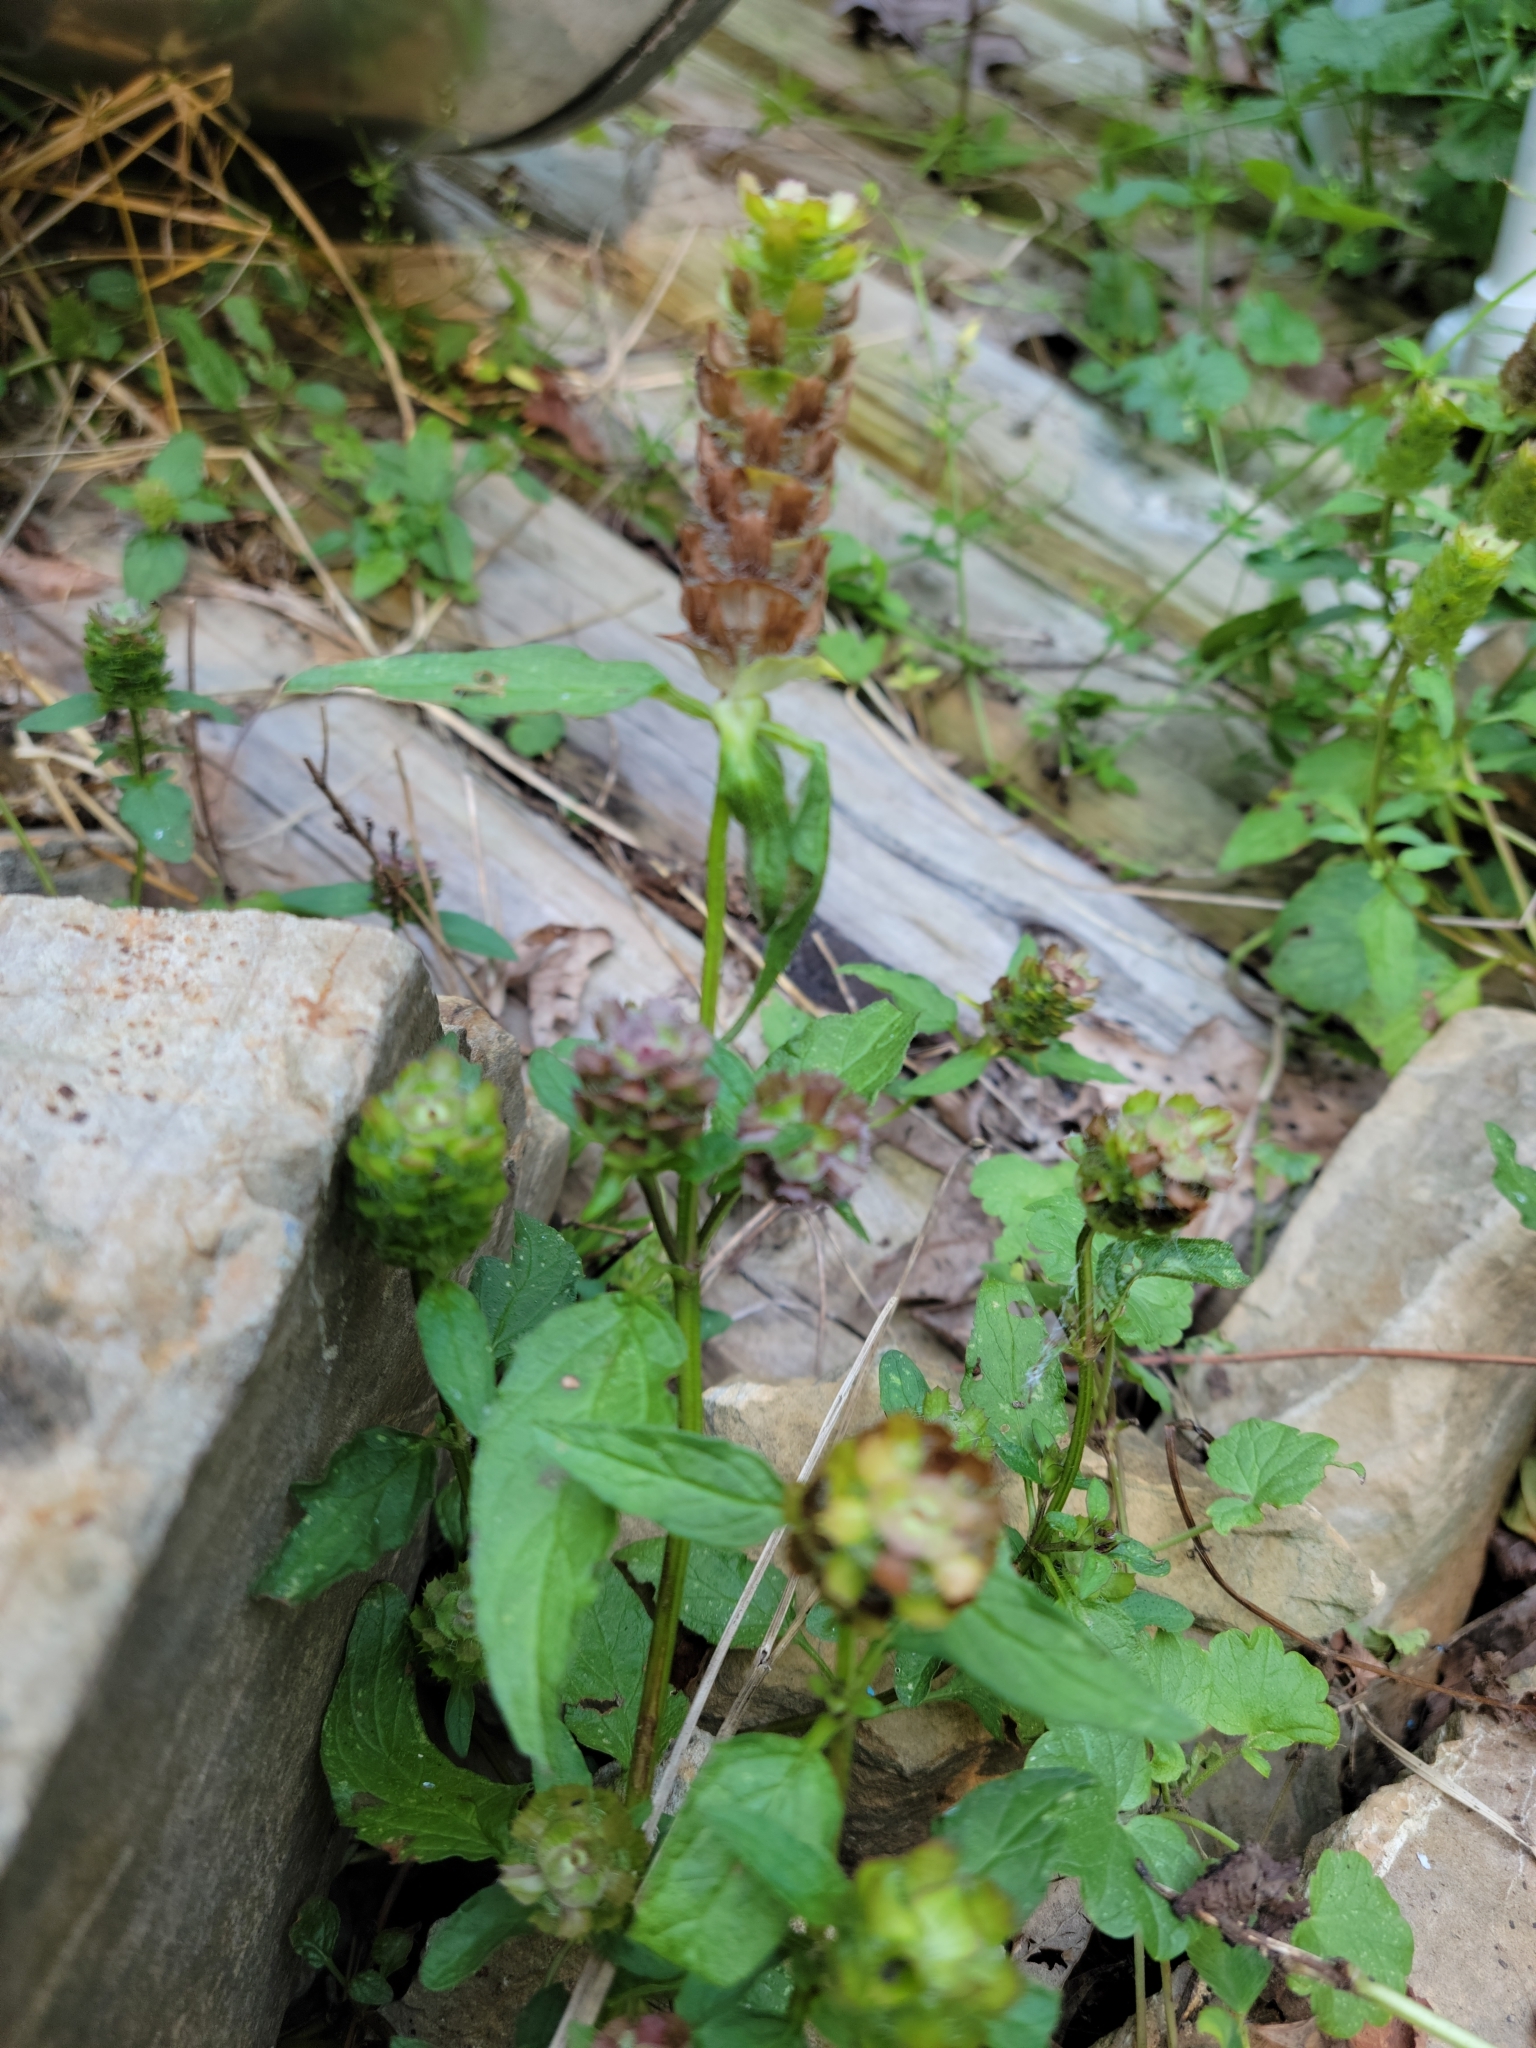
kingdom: Plantae
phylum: Tracheophyta
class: Magnoliopsida
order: Lamiales
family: Lamiaceae
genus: Prunella
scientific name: Prunella vulgaris
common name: Heal-all
